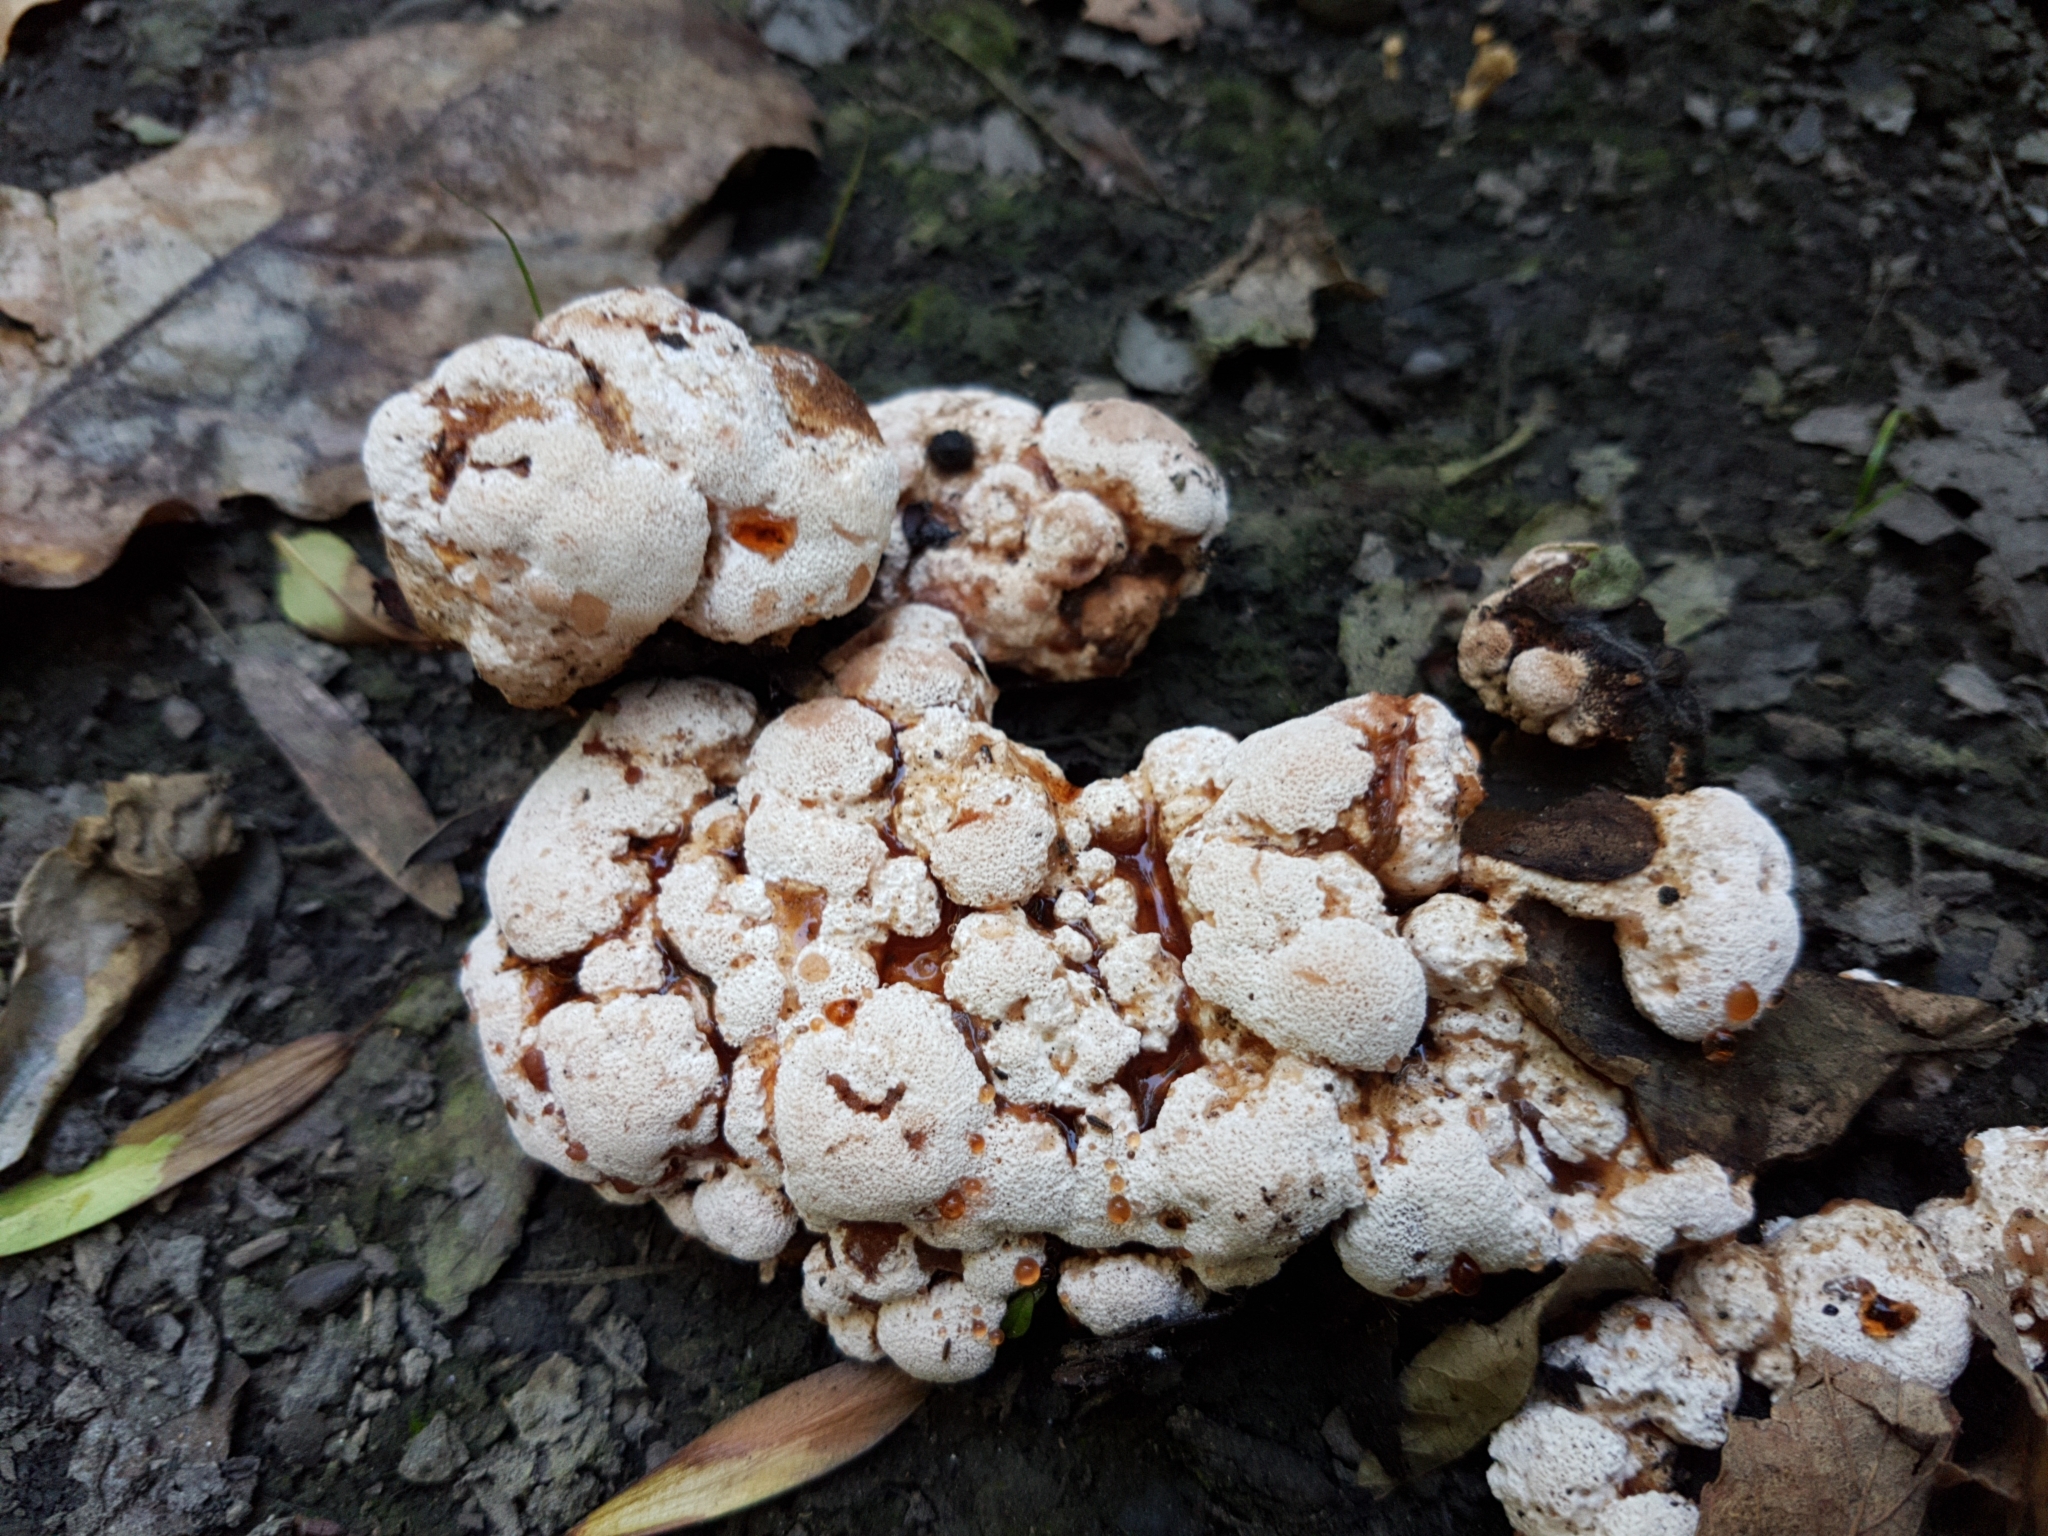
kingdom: Fungi
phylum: Basidiomycota
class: Agaricomycetes
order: Polyporales
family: Podoscyphaceae
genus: Abortiporus
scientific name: Abortiporus biennis
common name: Blushing rosette
